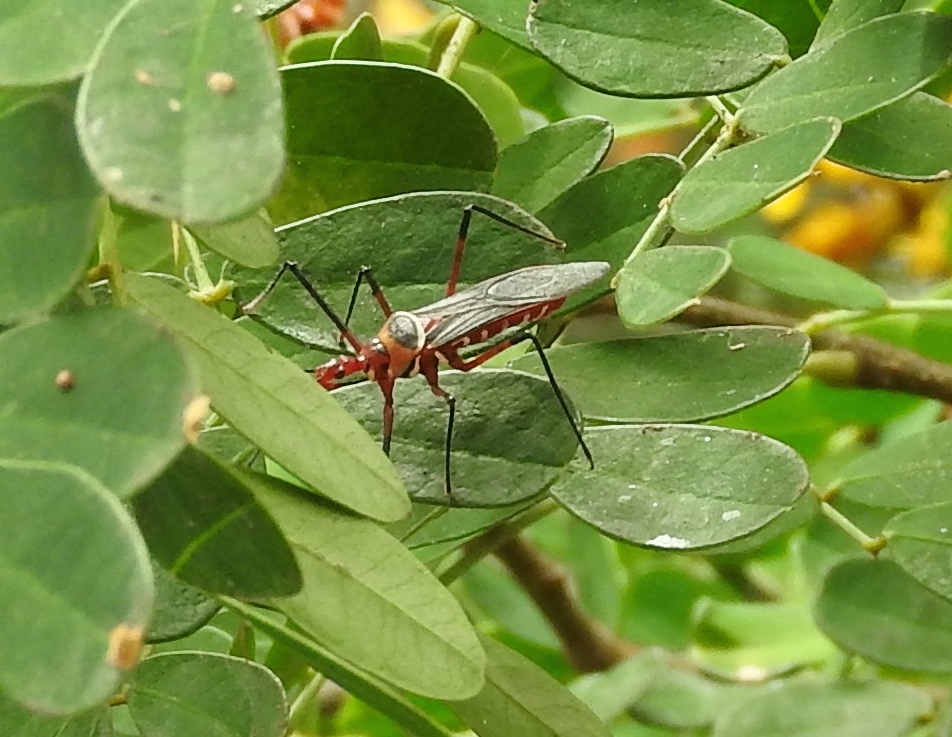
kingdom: Animalia
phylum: Arthropoda
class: Insecta
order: Hemiptera
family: Reduviidae
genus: Zelus
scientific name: Zelus grassans
